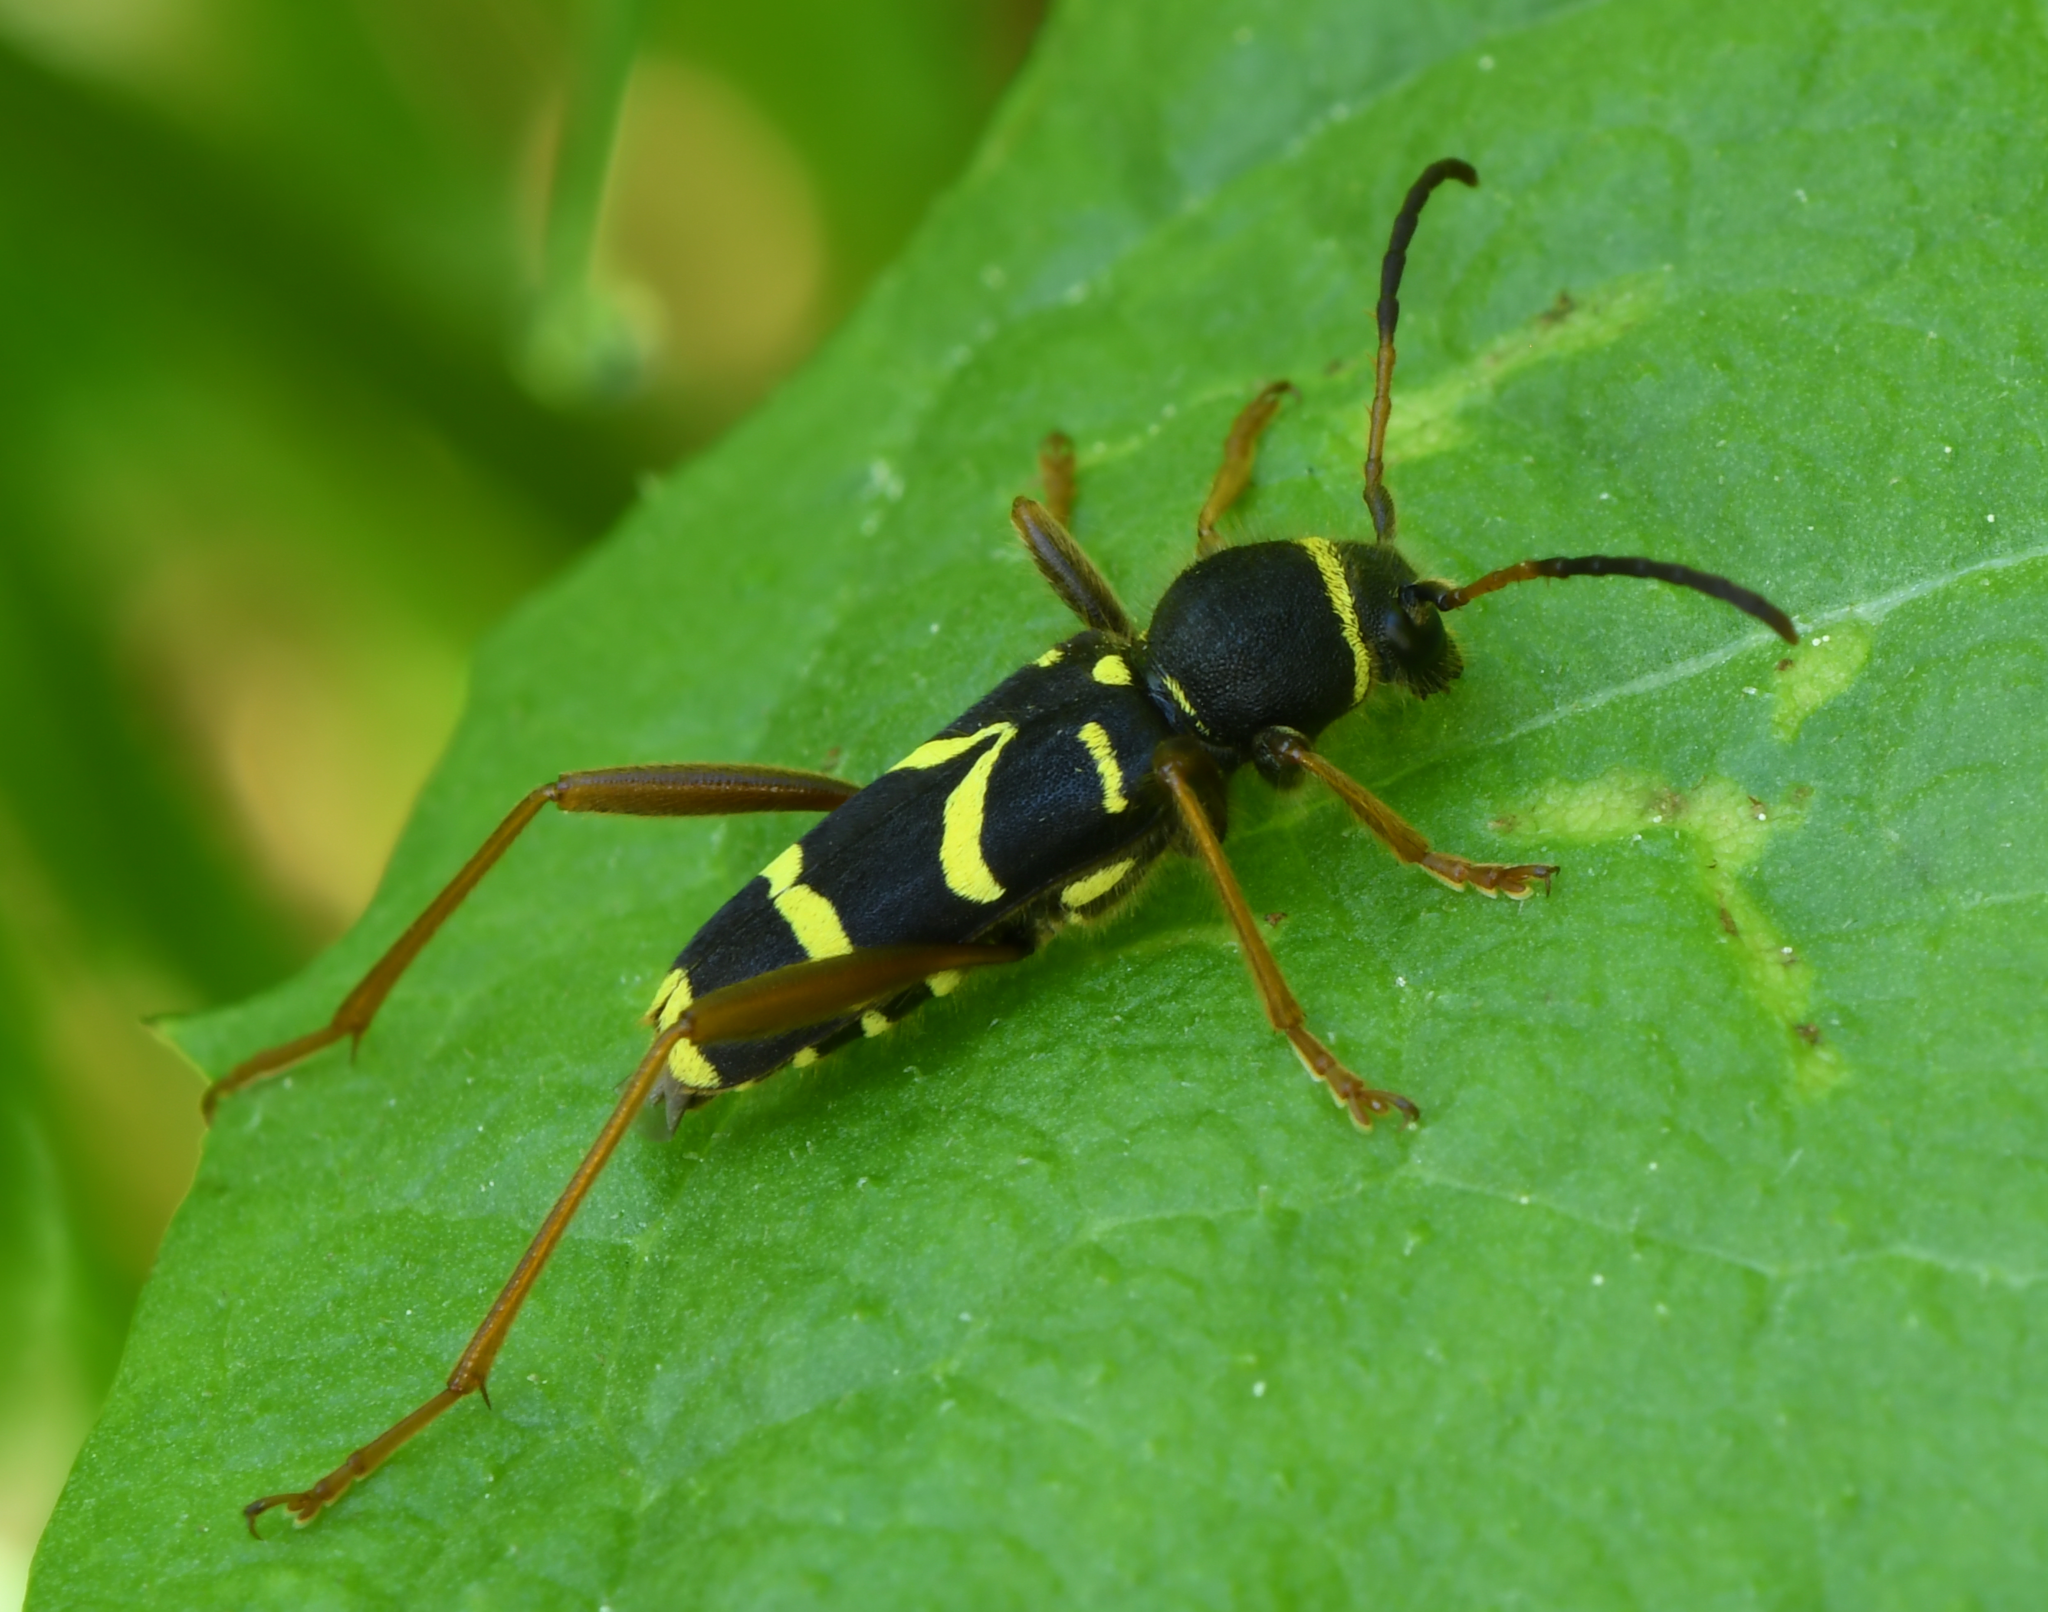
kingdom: Animalia
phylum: Arthropoda
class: Insecta
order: Coleoptera
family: Cerambycidae
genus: Clytus
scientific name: Clytus arietis
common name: Wasp beetle
